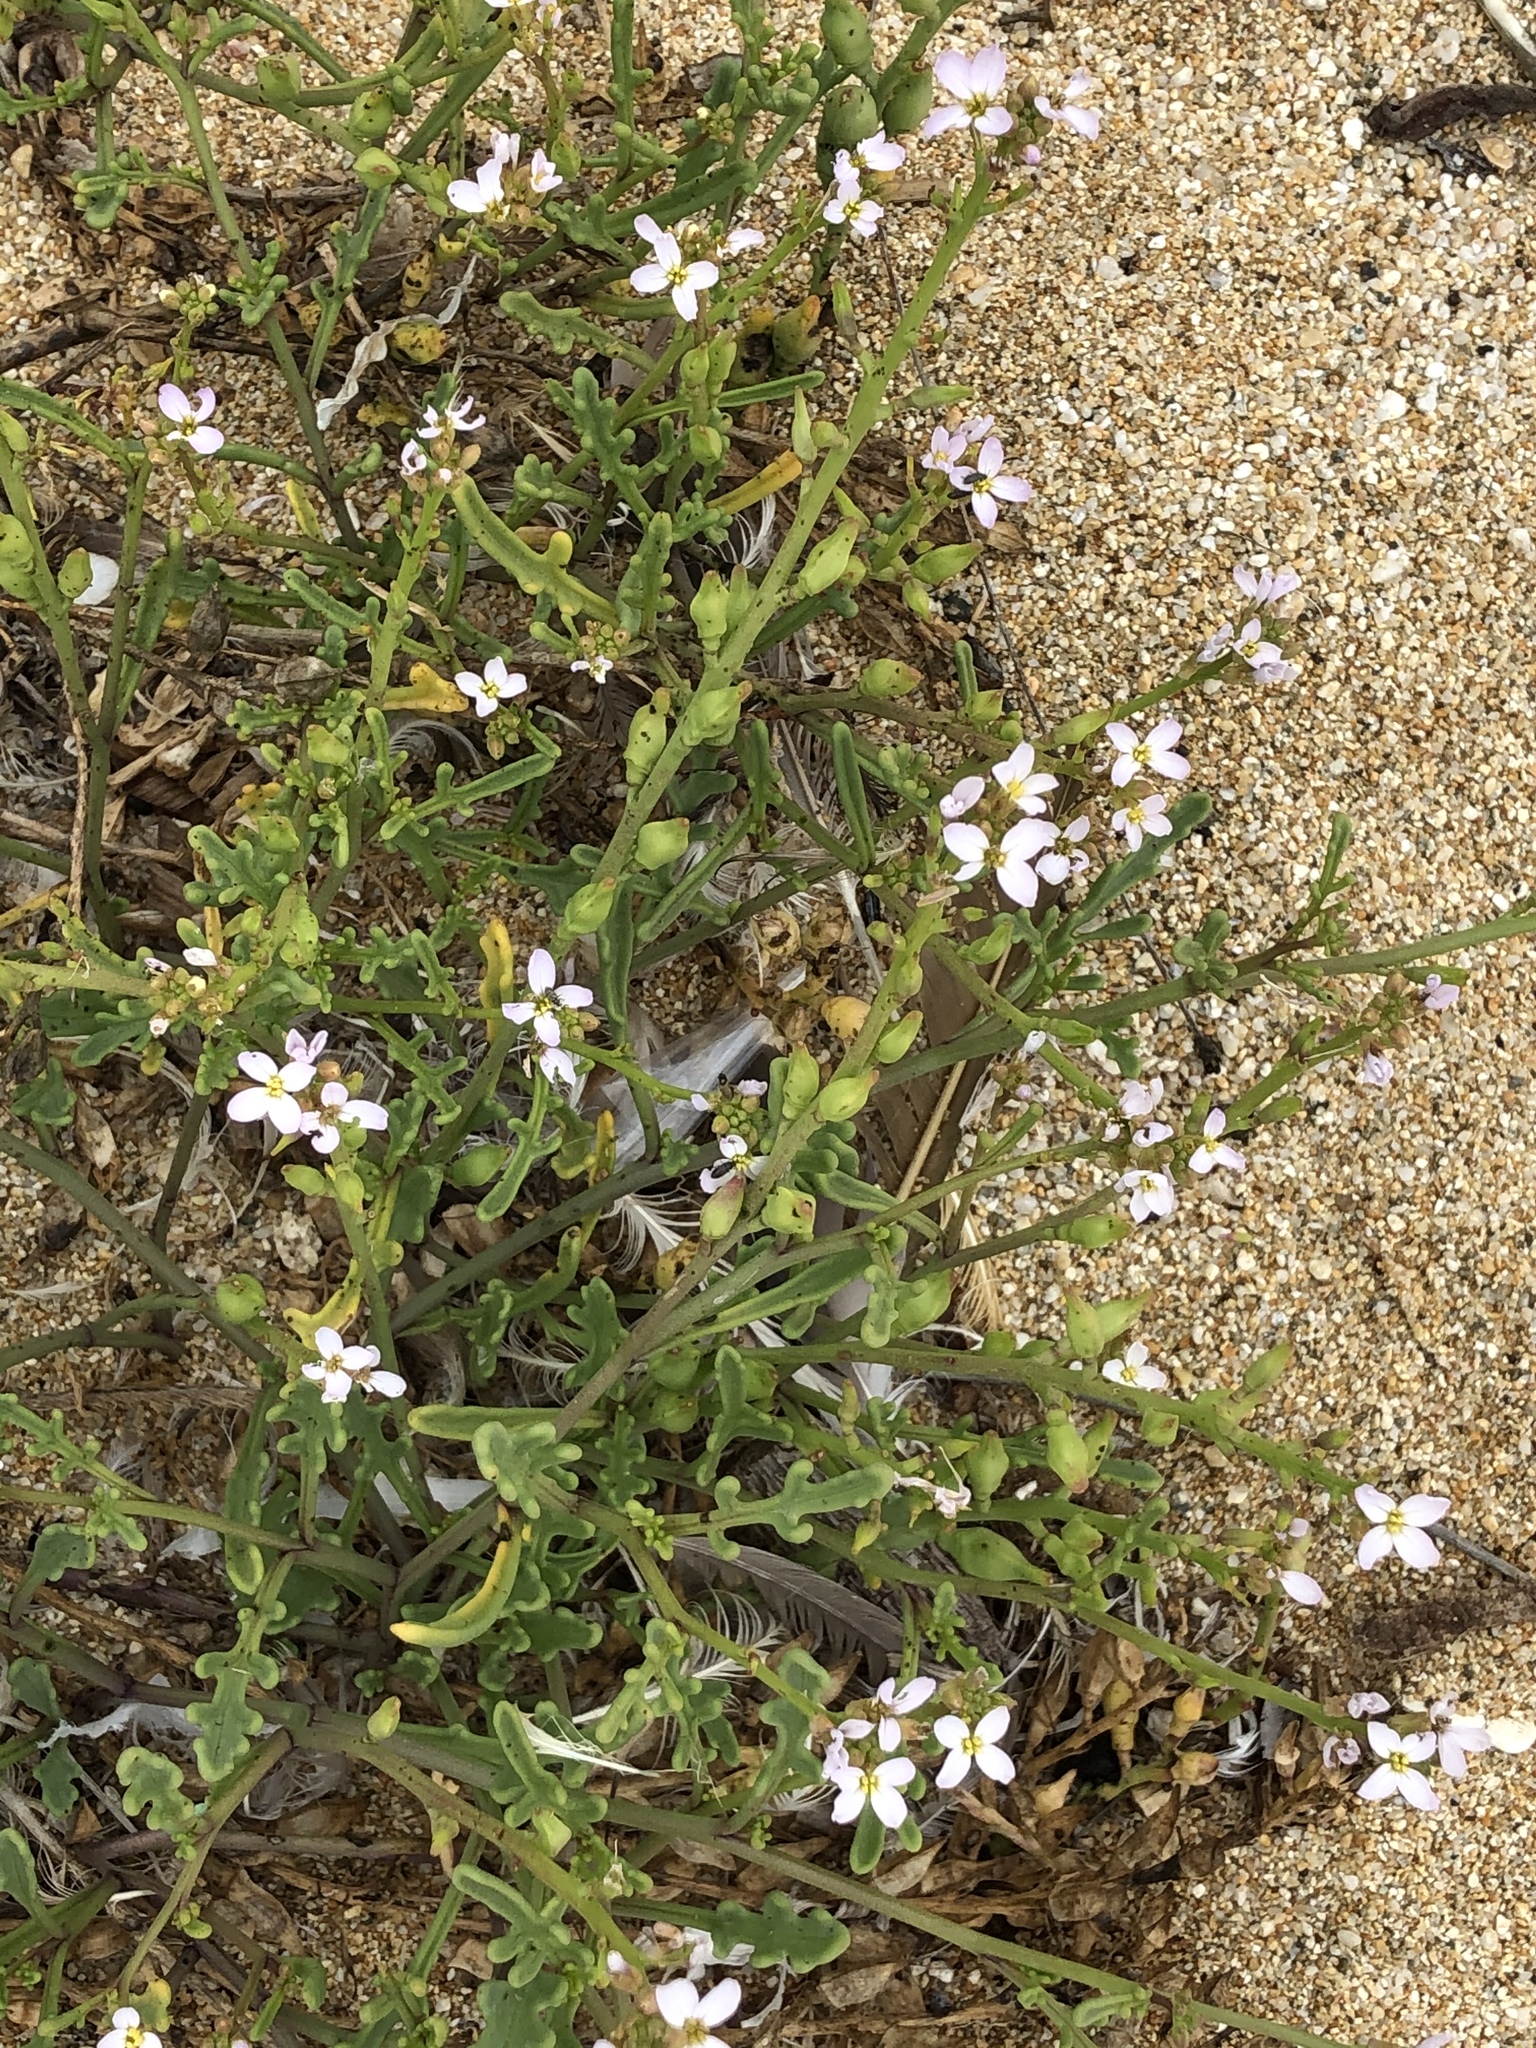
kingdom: Plantae
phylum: Tracheophyta
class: Magnoliopsida
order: Brassicales
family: Brassicaceae
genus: Cakile
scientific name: Cakile maritima
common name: Sea rocket
